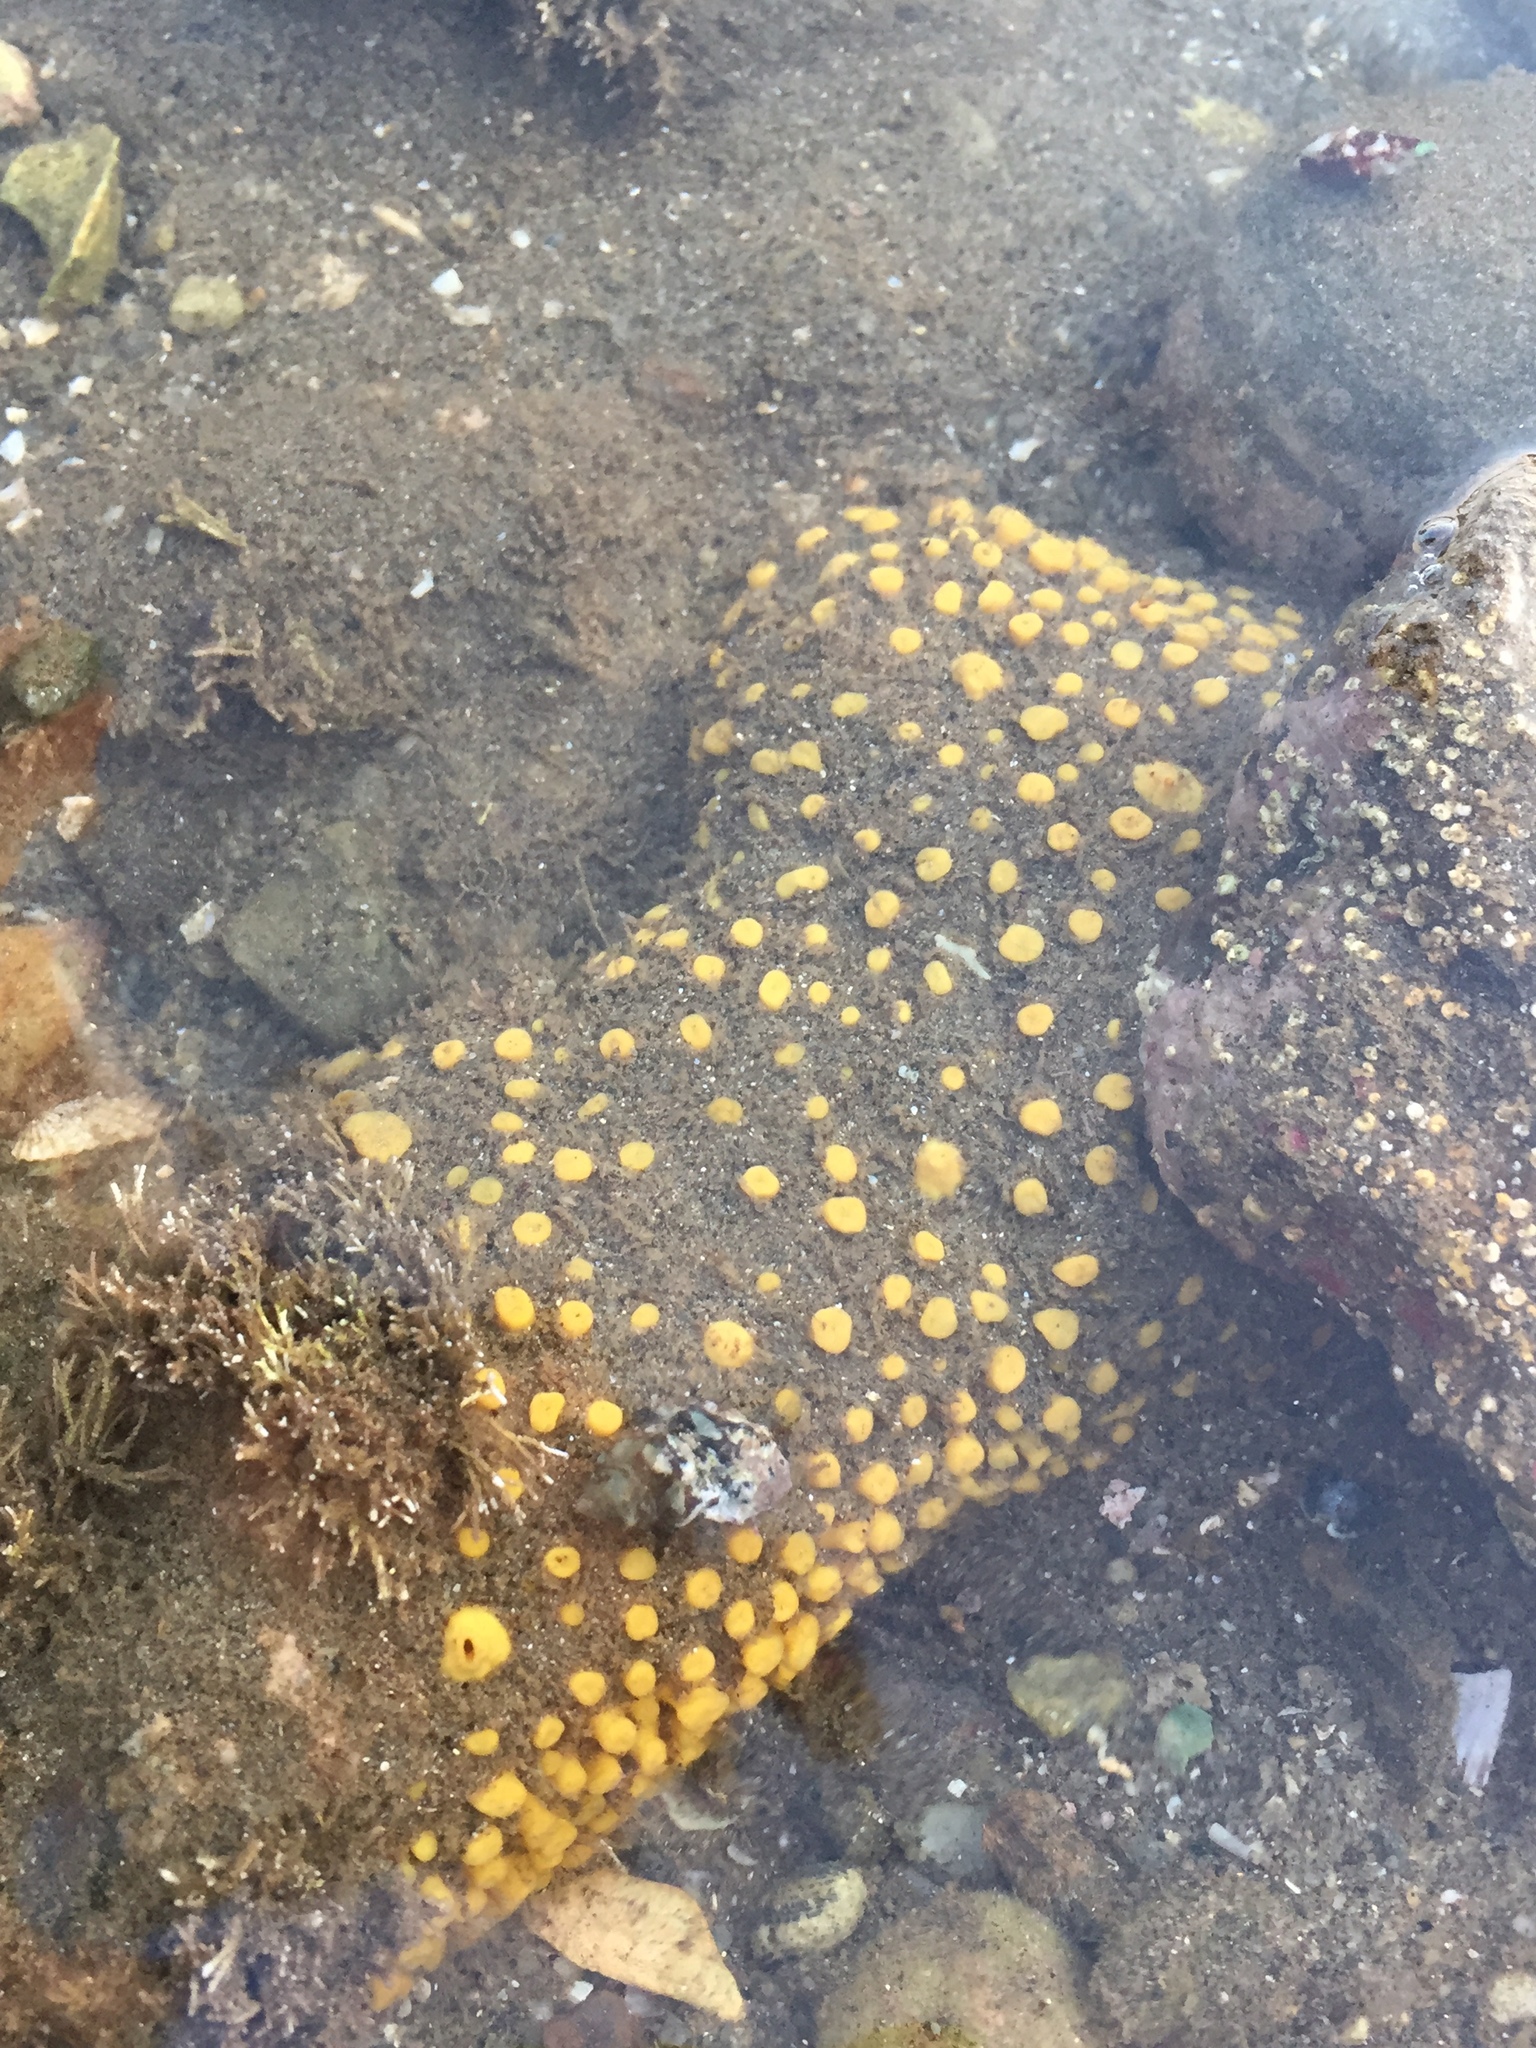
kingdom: Animalia
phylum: Porifera
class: Demospongiae
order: Clionaida
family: Clionaidae
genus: Cliona
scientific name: Cliona californiana
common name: California boring horny sponge
